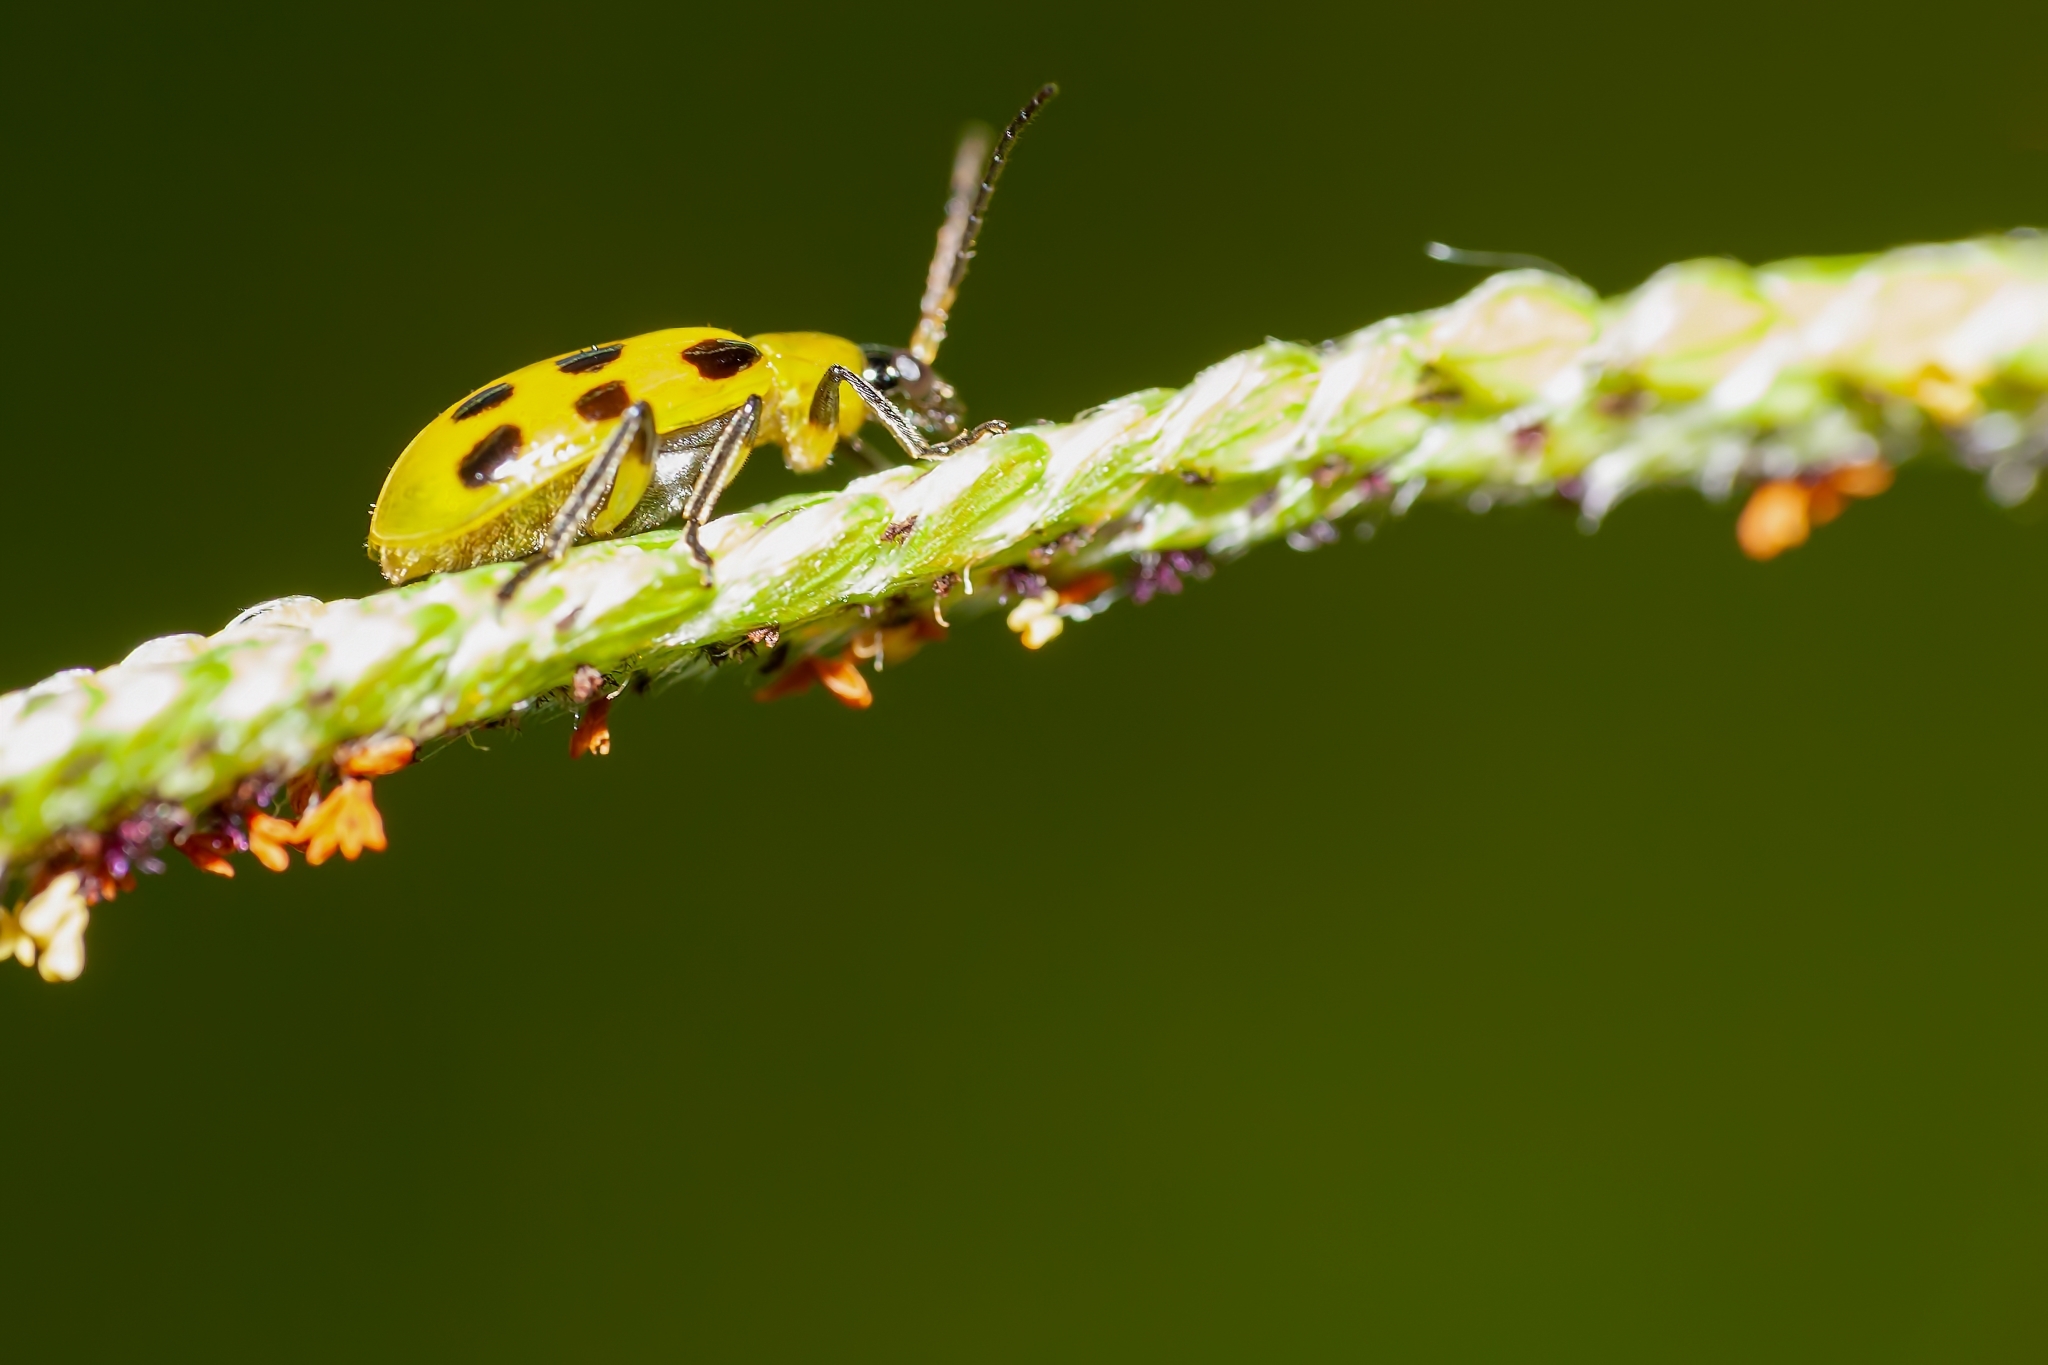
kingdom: Animalia
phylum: Arthropoda
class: Insecta
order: Coleoptera
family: Chrysomelidae
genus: Diabrotica
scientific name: Diabrotica undecimpunctata
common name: Spotted cucumber beetle
